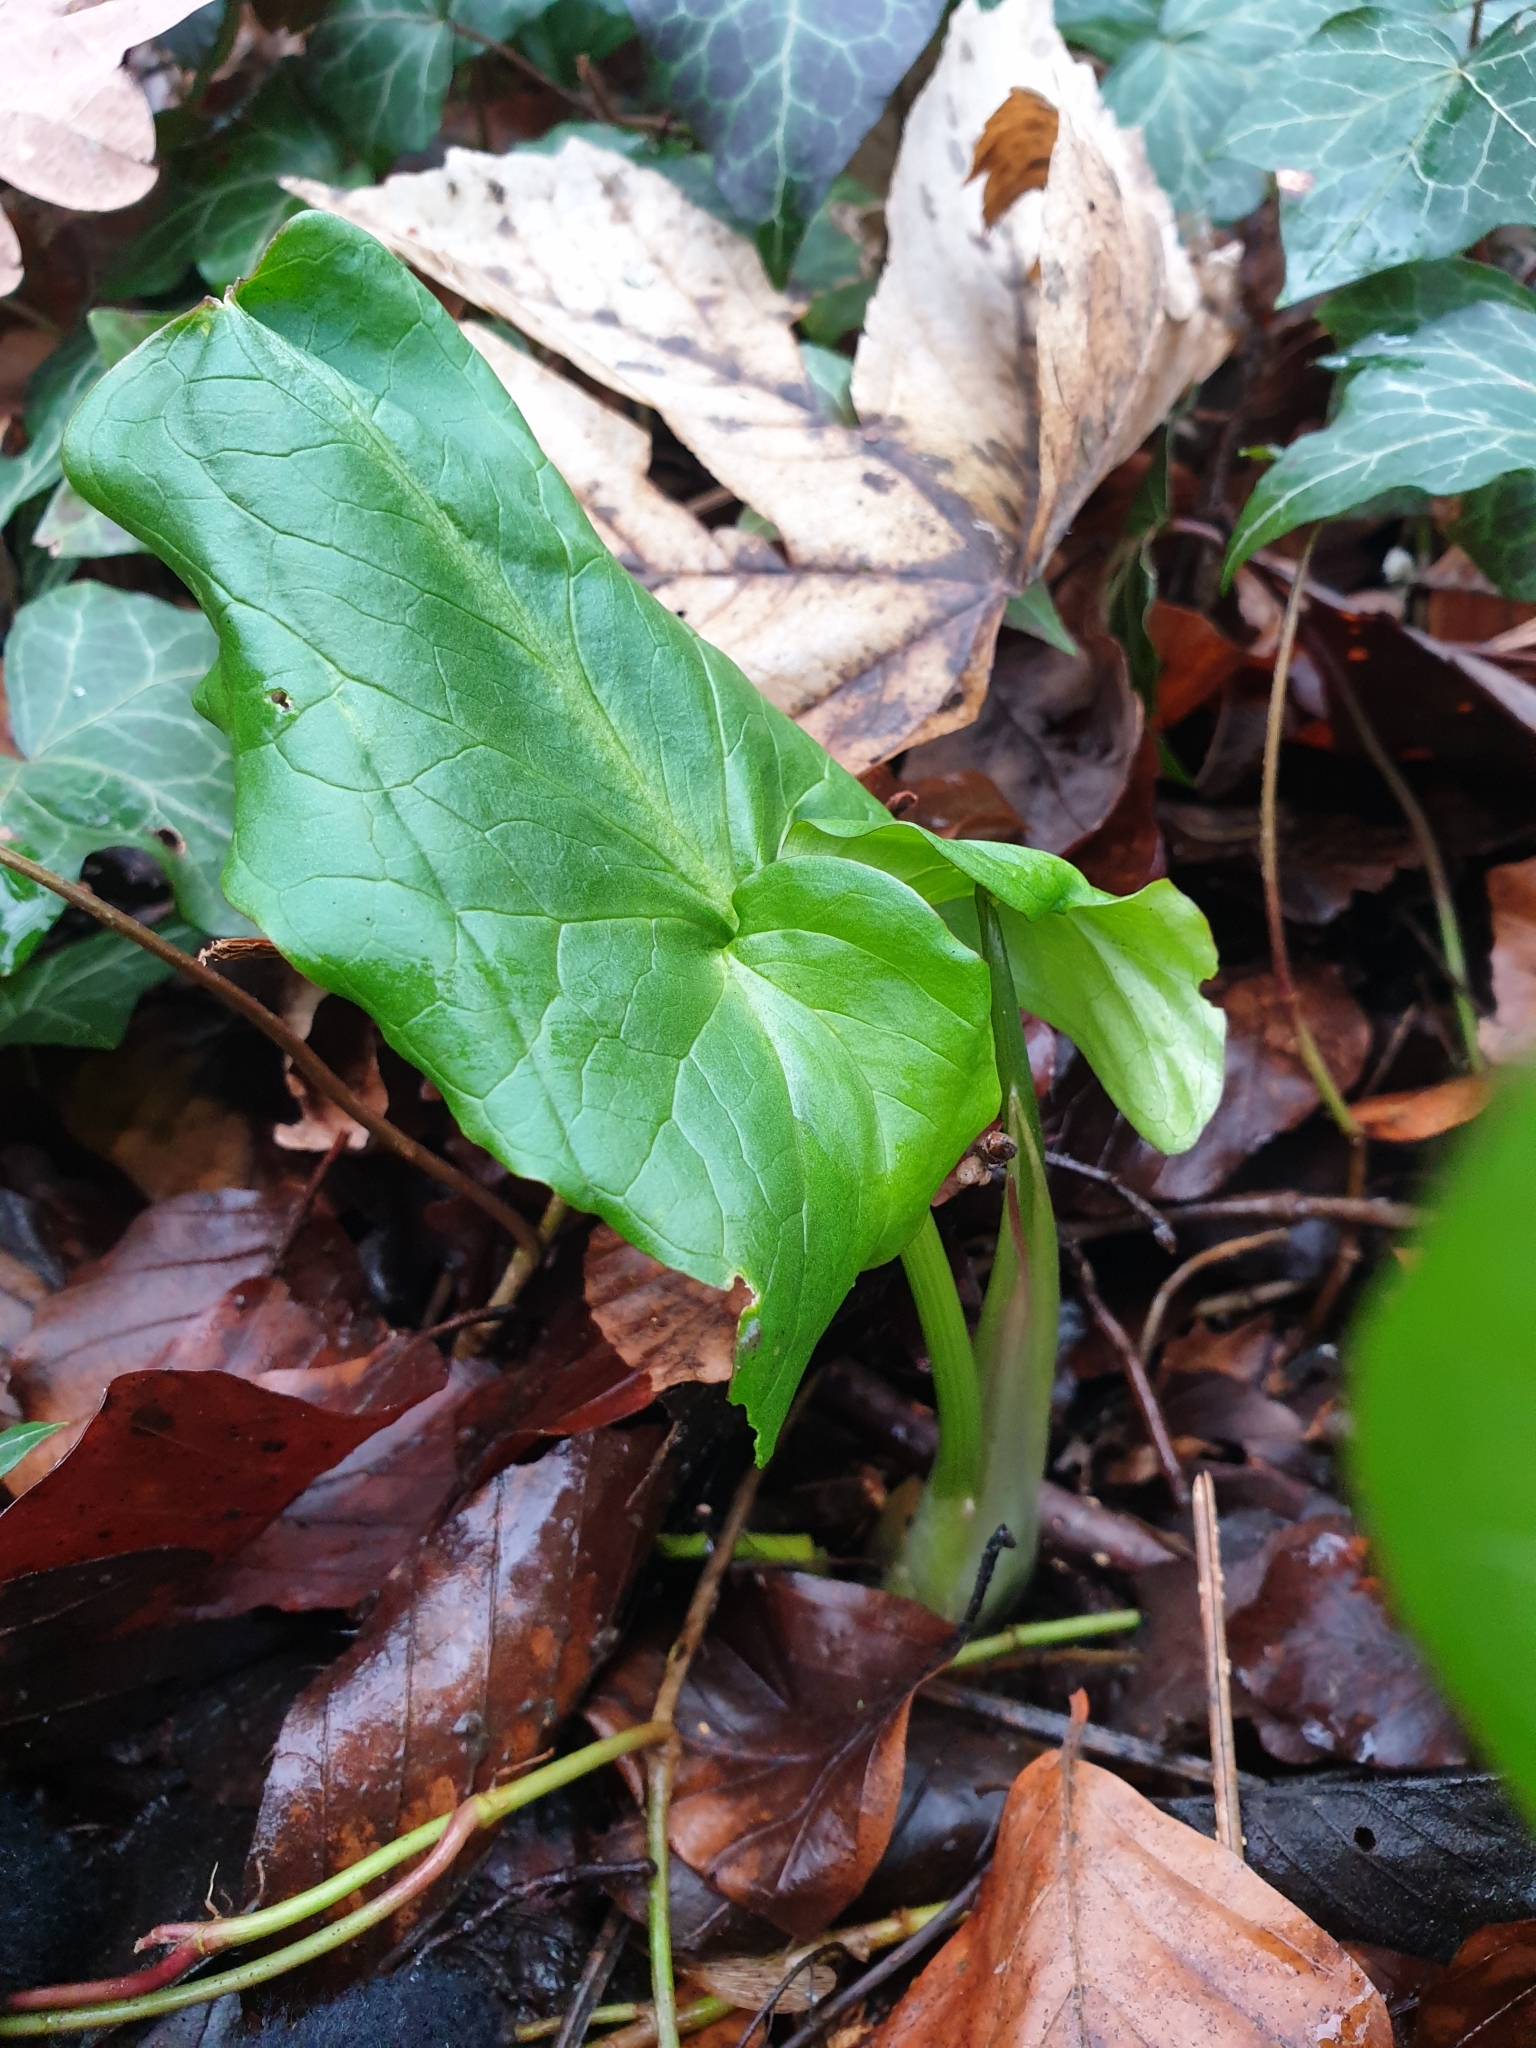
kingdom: Plantae
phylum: Tracheophyta
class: Liliopsida
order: Alismatales
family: Araceae
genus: Arum
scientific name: Arum maculatum
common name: Lords-and-ladies
